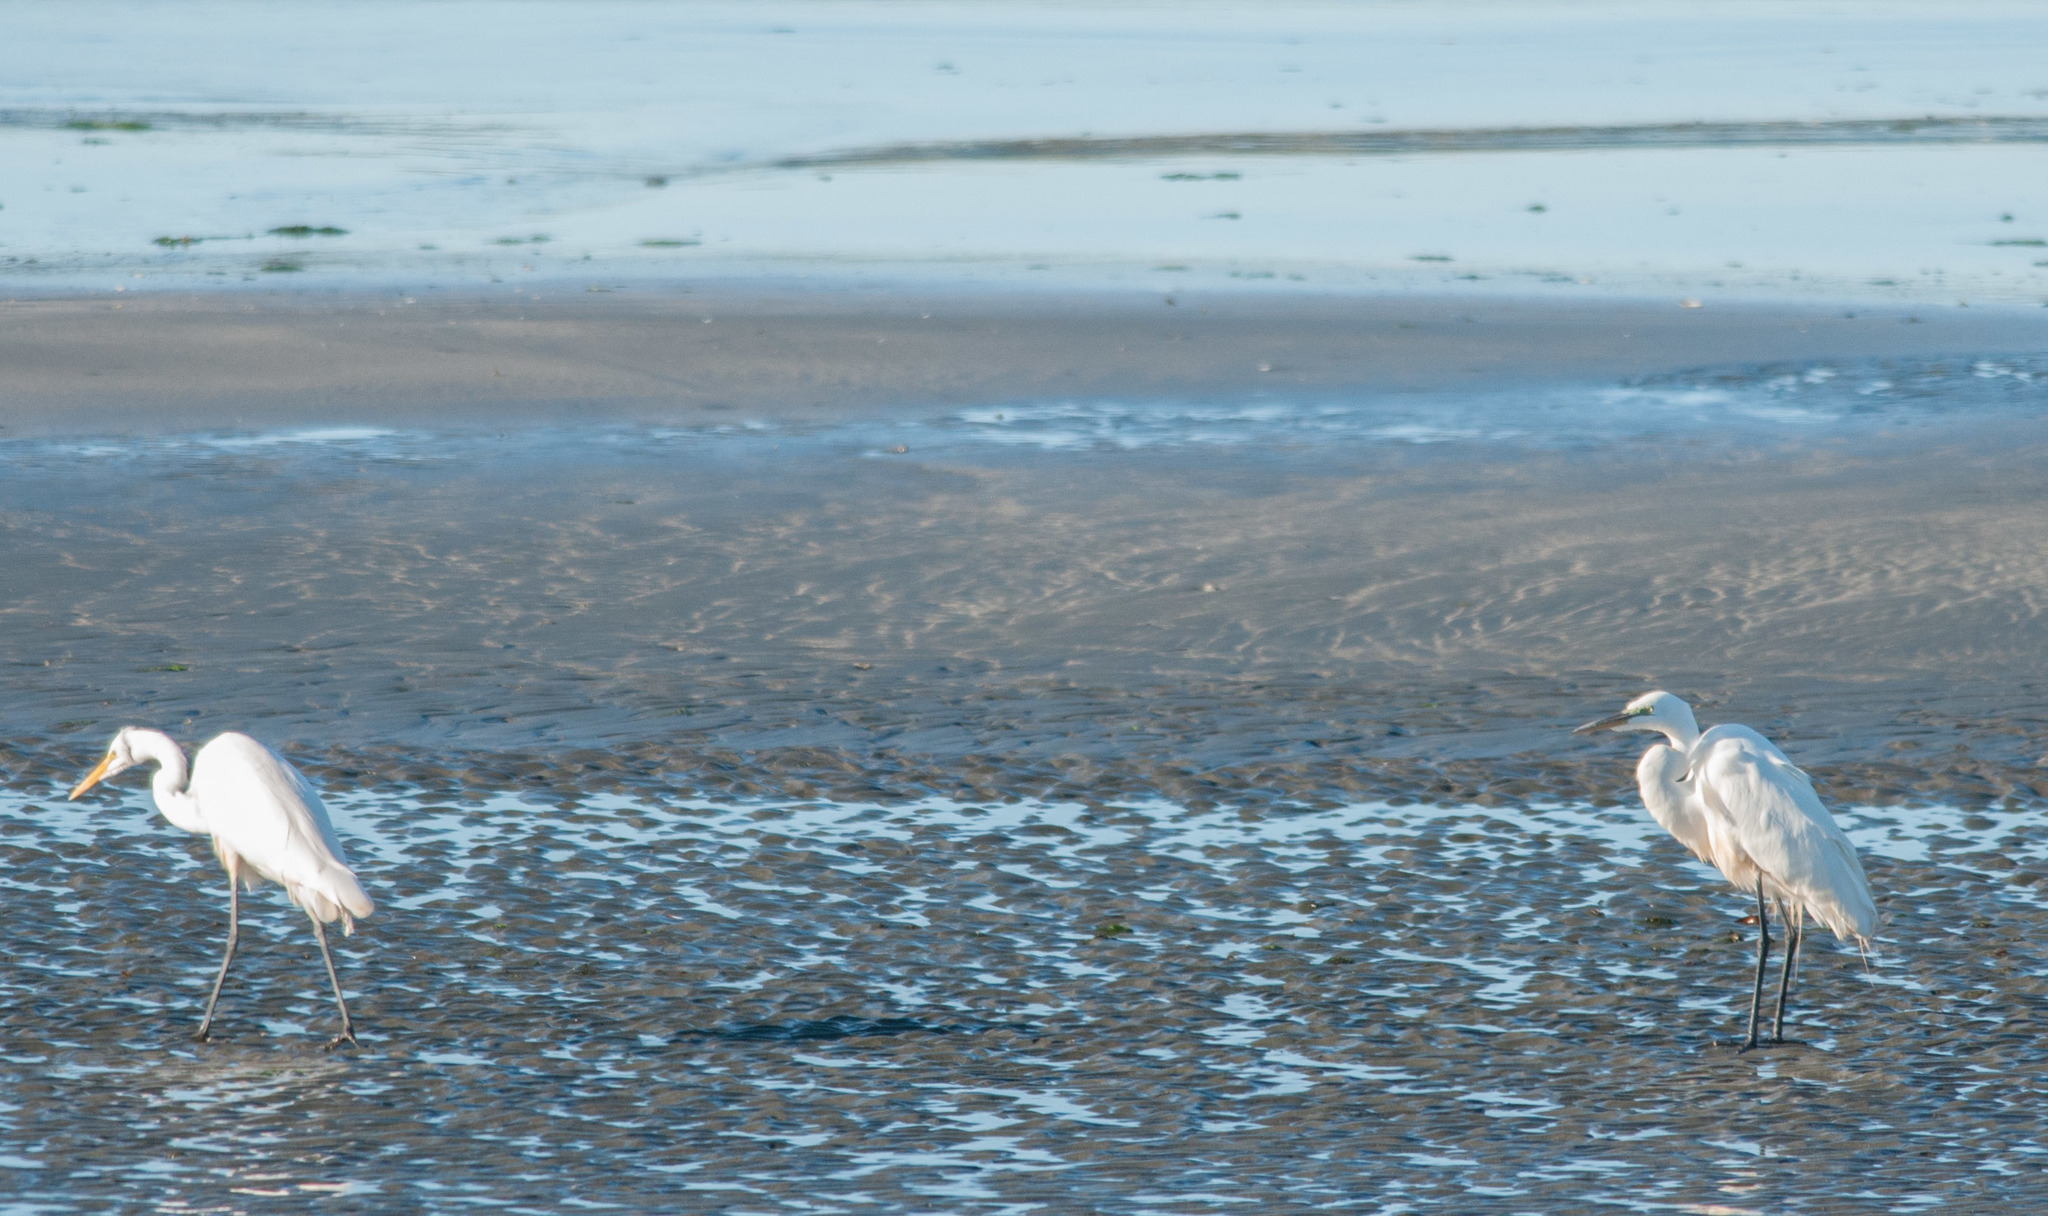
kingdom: Animalia
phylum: Chordata
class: Aves
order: Pelecaniformes
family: Ardeidae
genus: Ardea
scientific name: Ardea alba
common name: Great egret
